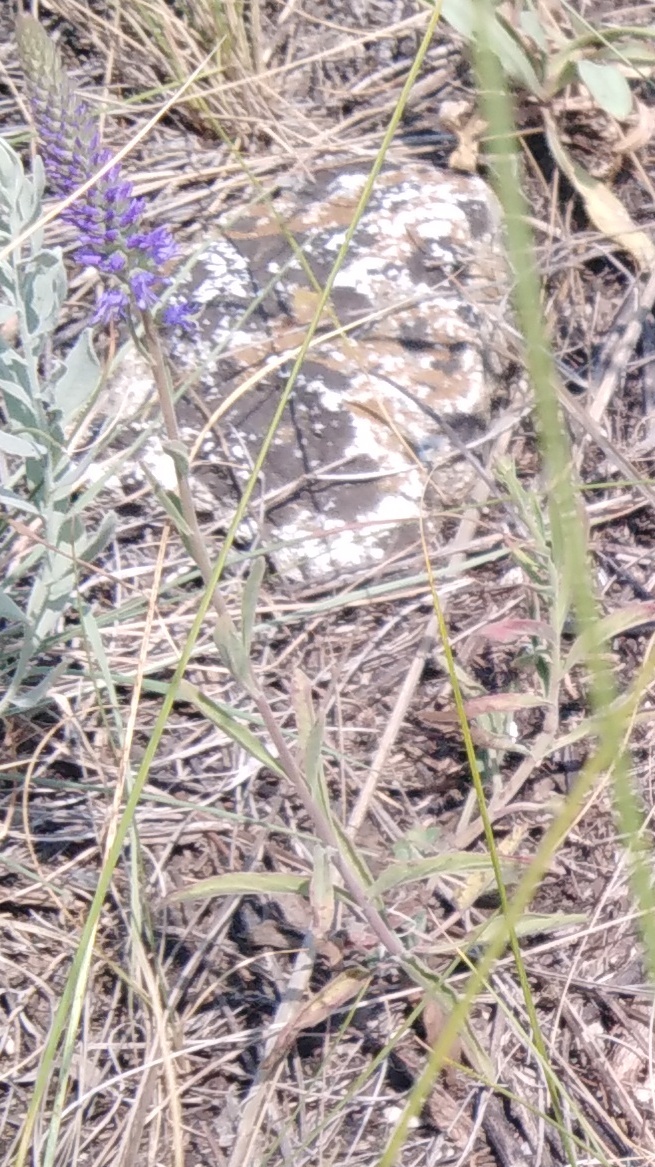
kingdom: Plantae
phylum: Tracheophyta
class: Magnoliopsida
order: Lamiales
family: Plantaginaceae
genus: Veronica
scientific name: Veronica incana
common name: Silver speedwell
